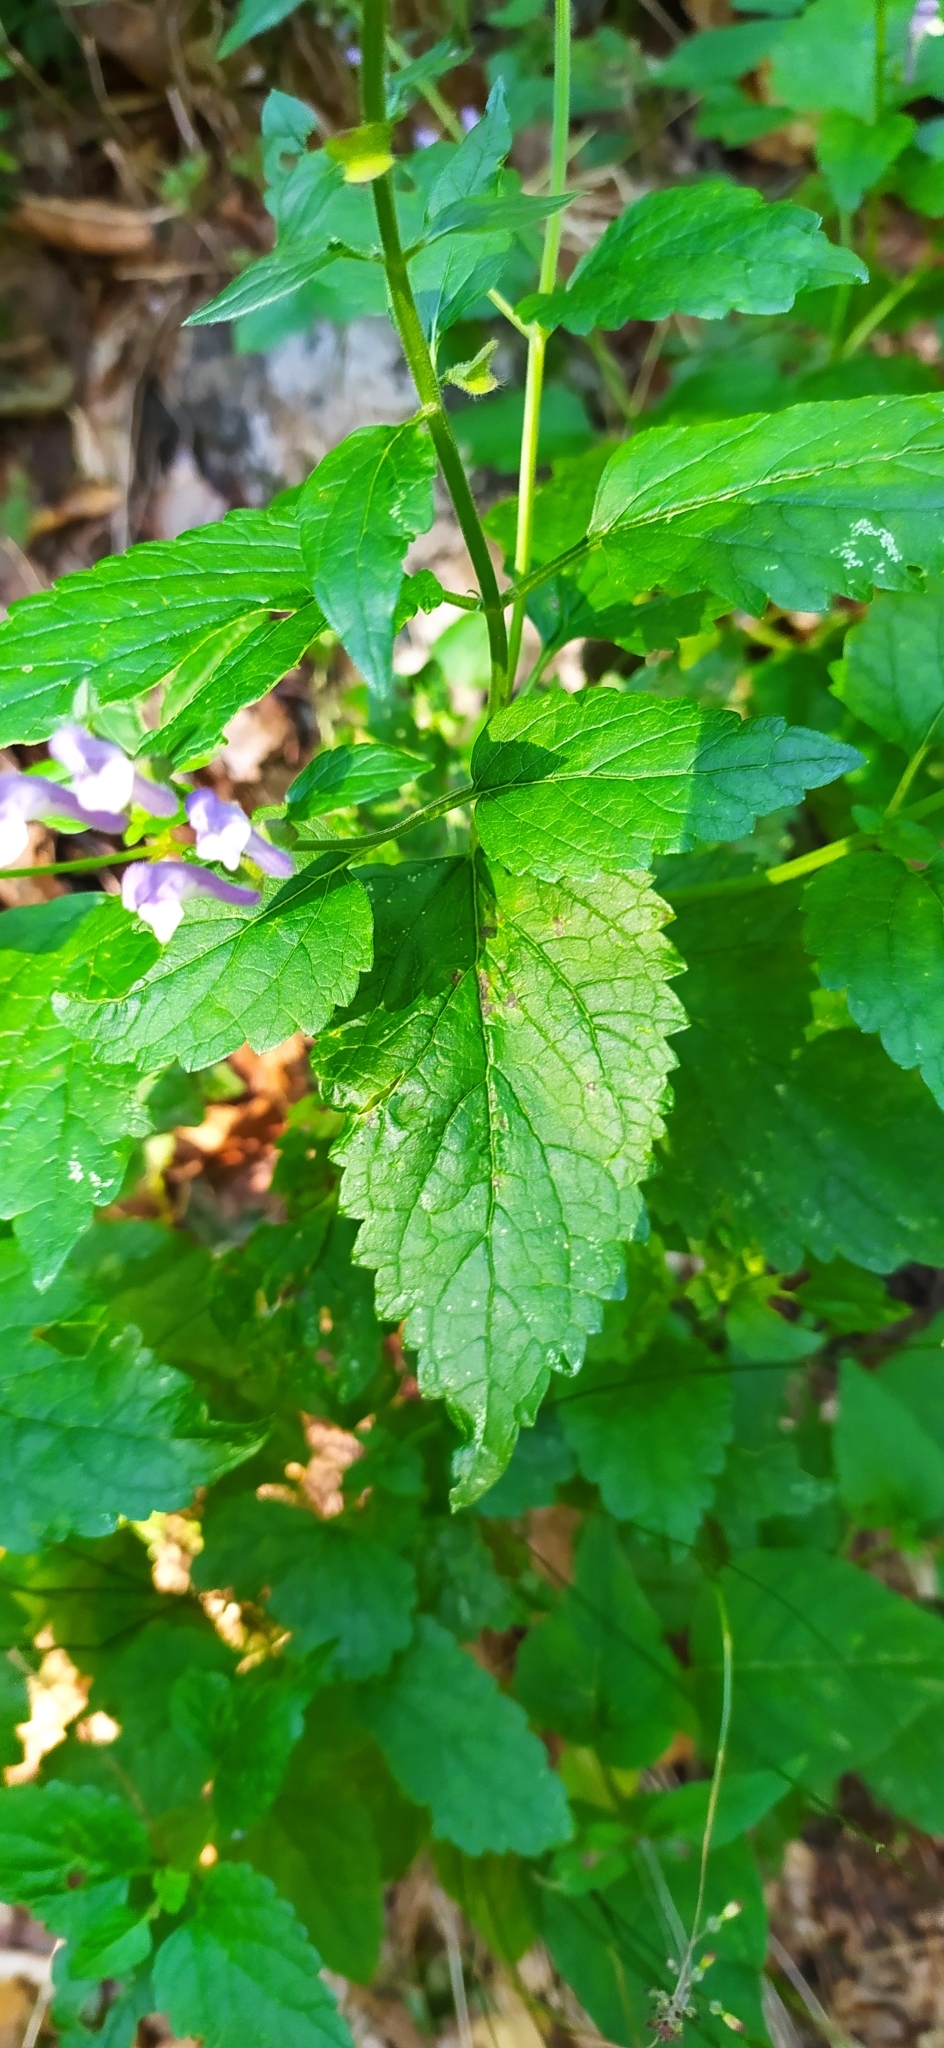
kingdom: Plantae
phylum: Tracheophyta
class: Magnoliopsida
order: Lamiales
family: Lamiaceae
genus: Scutellaria
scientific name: Scutellaria altissima
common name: Somerset skullcap
